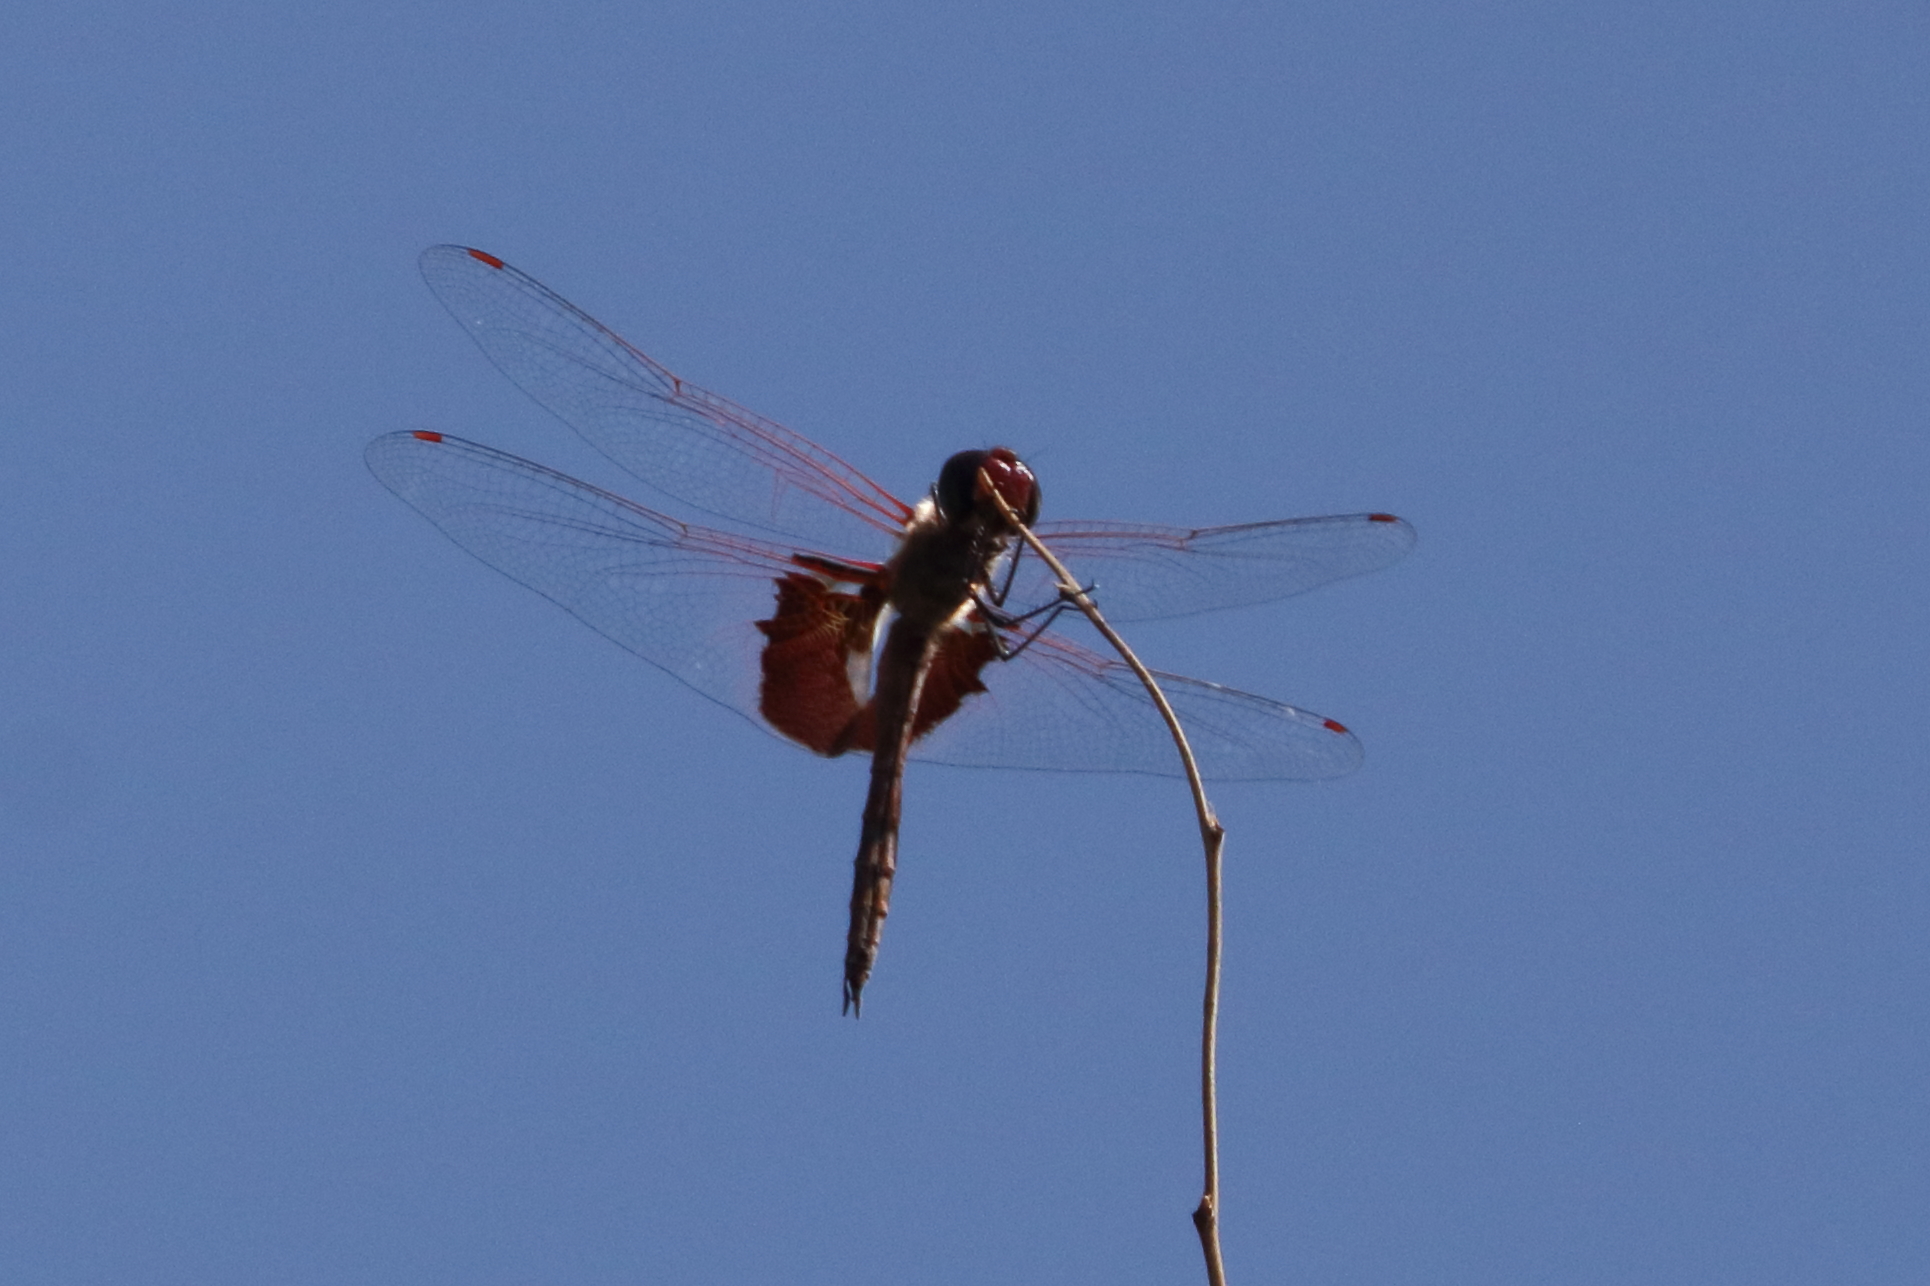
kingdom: Animalia
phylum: Arthropoda
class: Insecta
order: Odonata
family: Libellulidae
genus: Tramea
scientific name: Tramea onusta
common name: Red saddlebags
